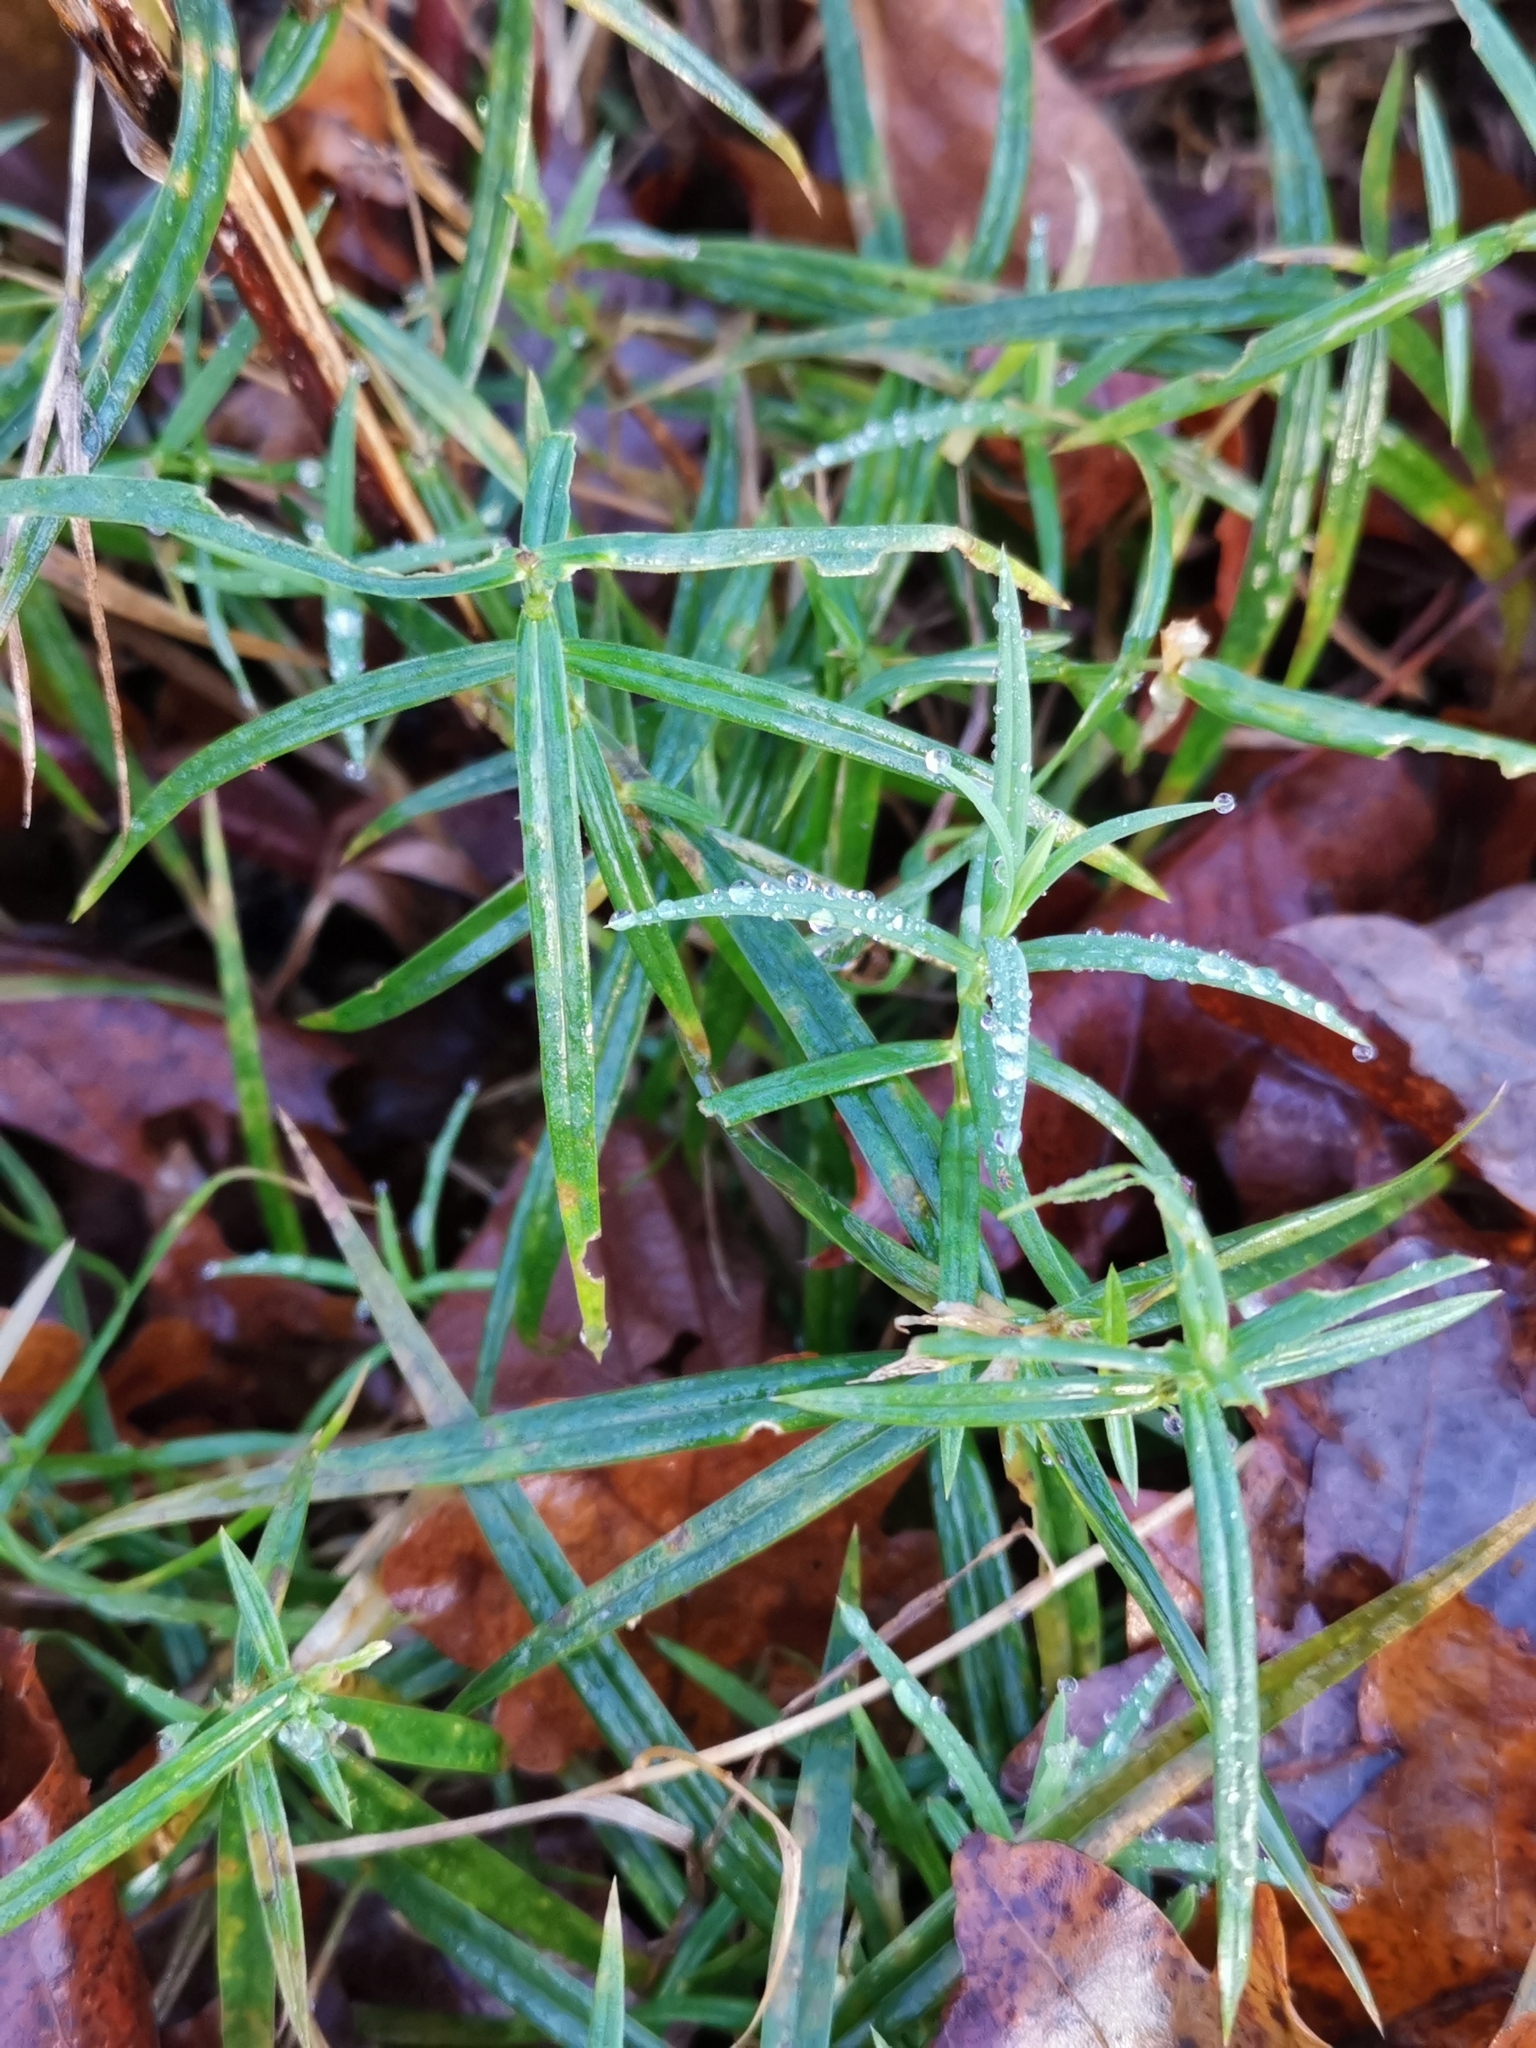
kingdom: Plantae
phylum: Tracheophyta
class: Magnoliopsida
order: Caryophyllales
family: Caryophyllaceae
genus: Rabelera
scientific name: Rabelera holostea
